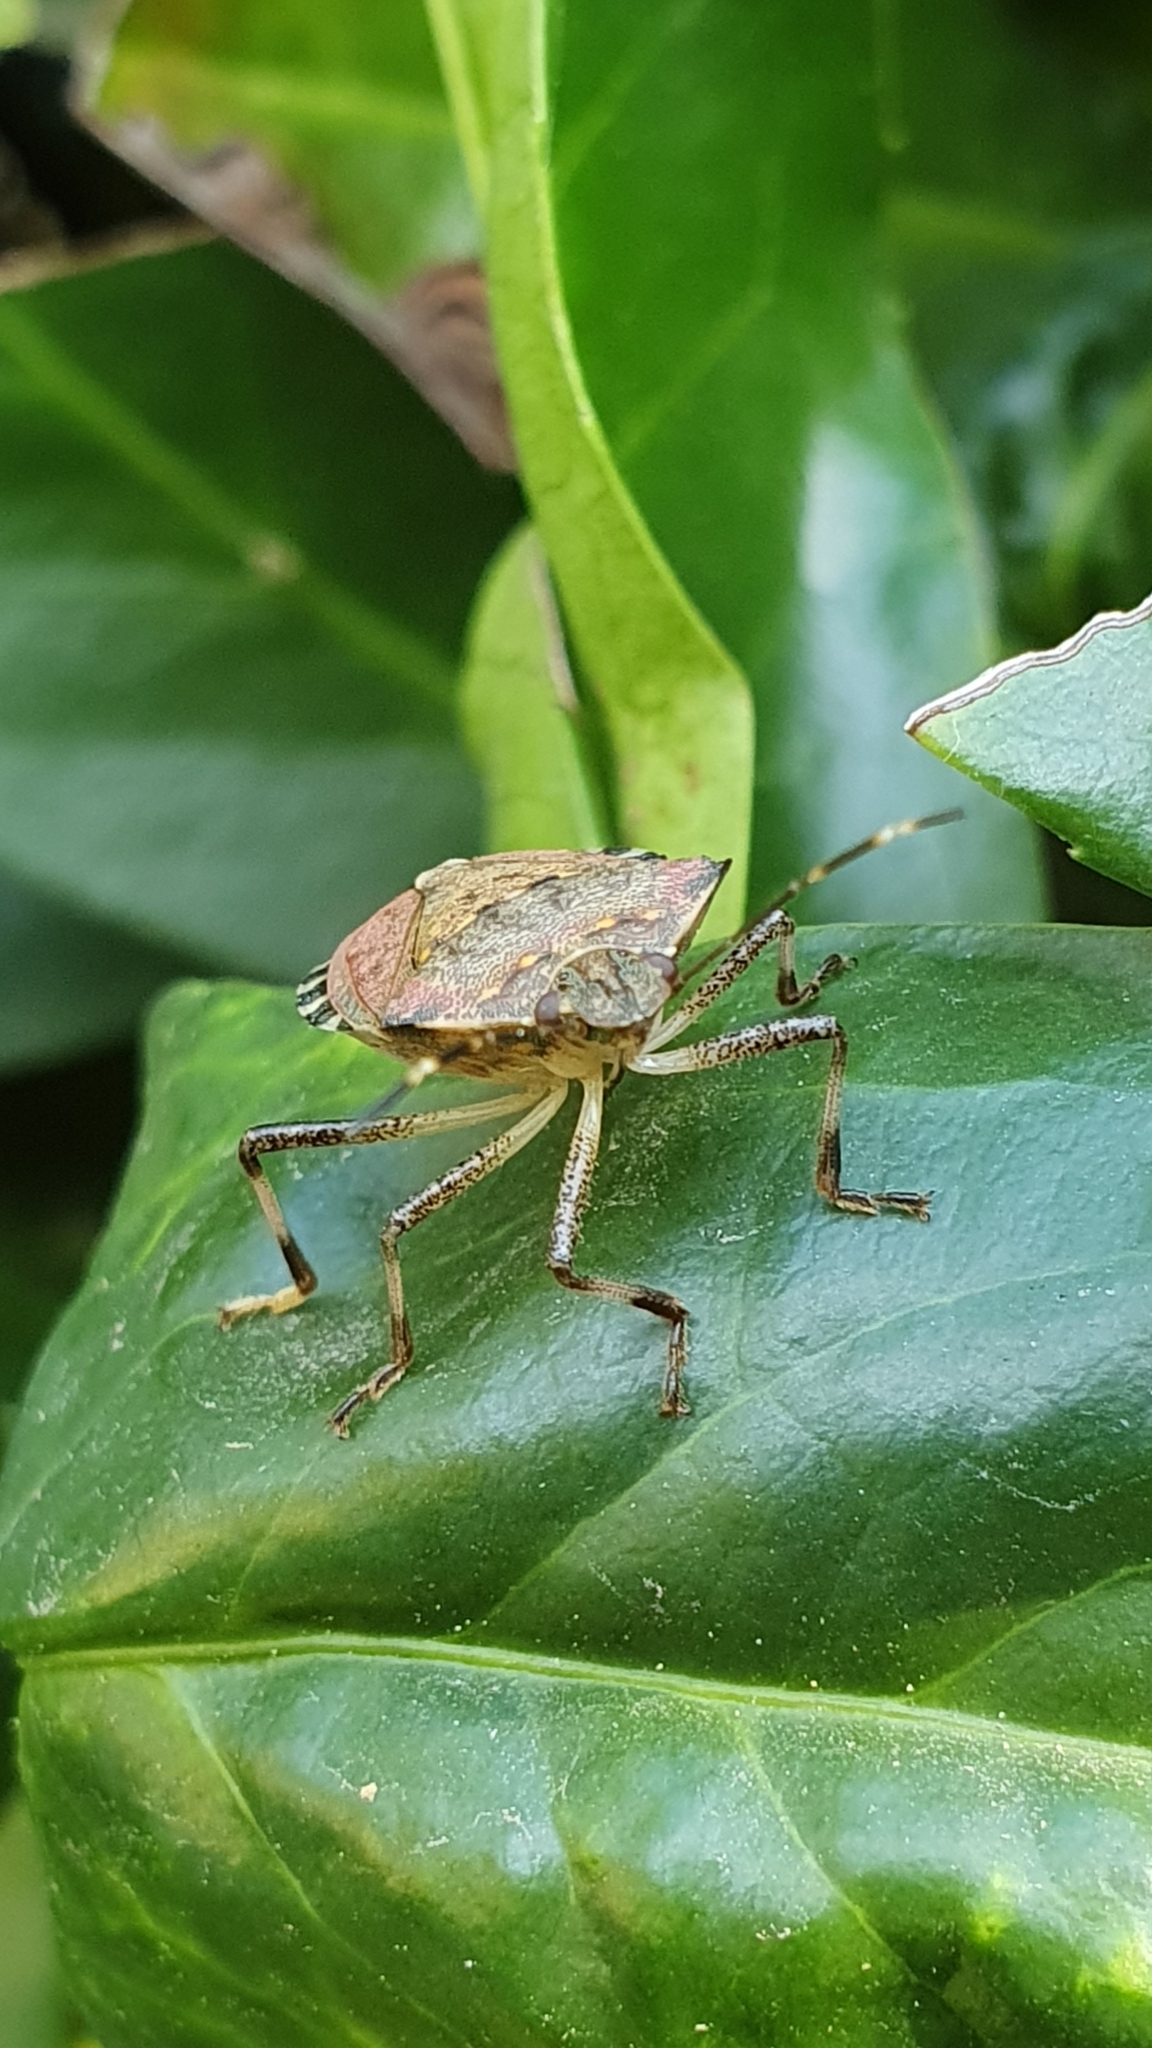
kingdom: Animalia
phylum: Arthropoda
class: Insecta
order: Hemiptera
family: Pentatomidae
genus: Halyomorpha
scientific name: Halyomorpha halys
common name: Brown marmorated stink bug
